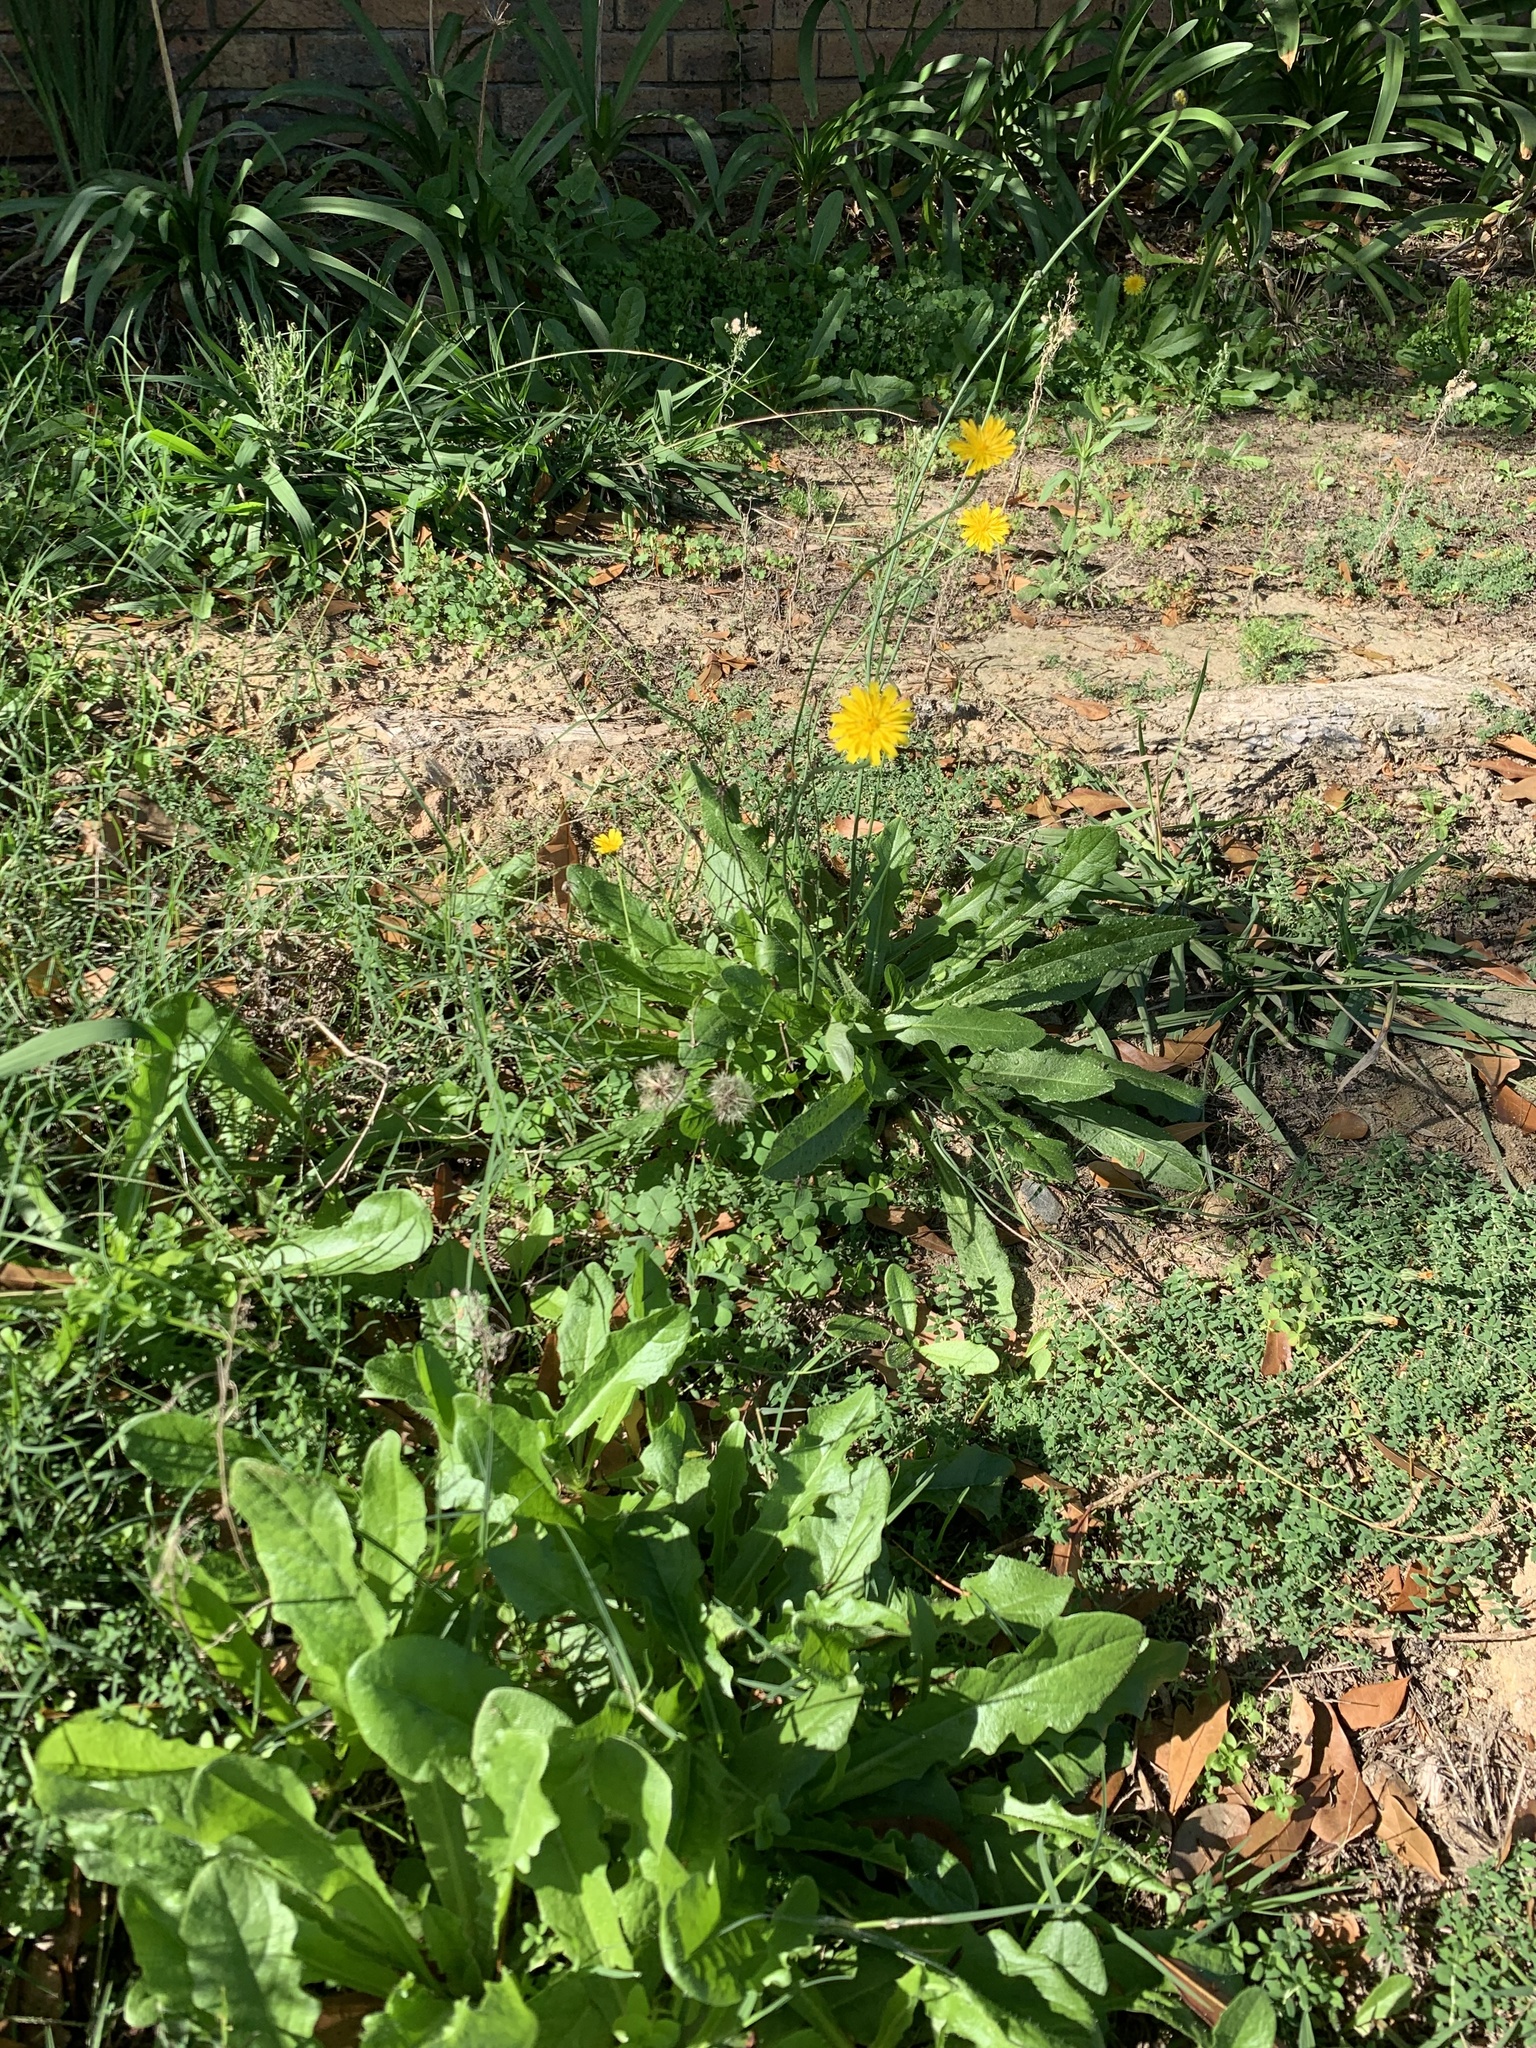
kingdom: Plantae
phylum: Tracheophyta
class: Magnoliopsida
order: Asterales
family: Asteraceae
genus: Hypochaeris
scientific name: Hypochaeris radicata
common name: Flatweed
